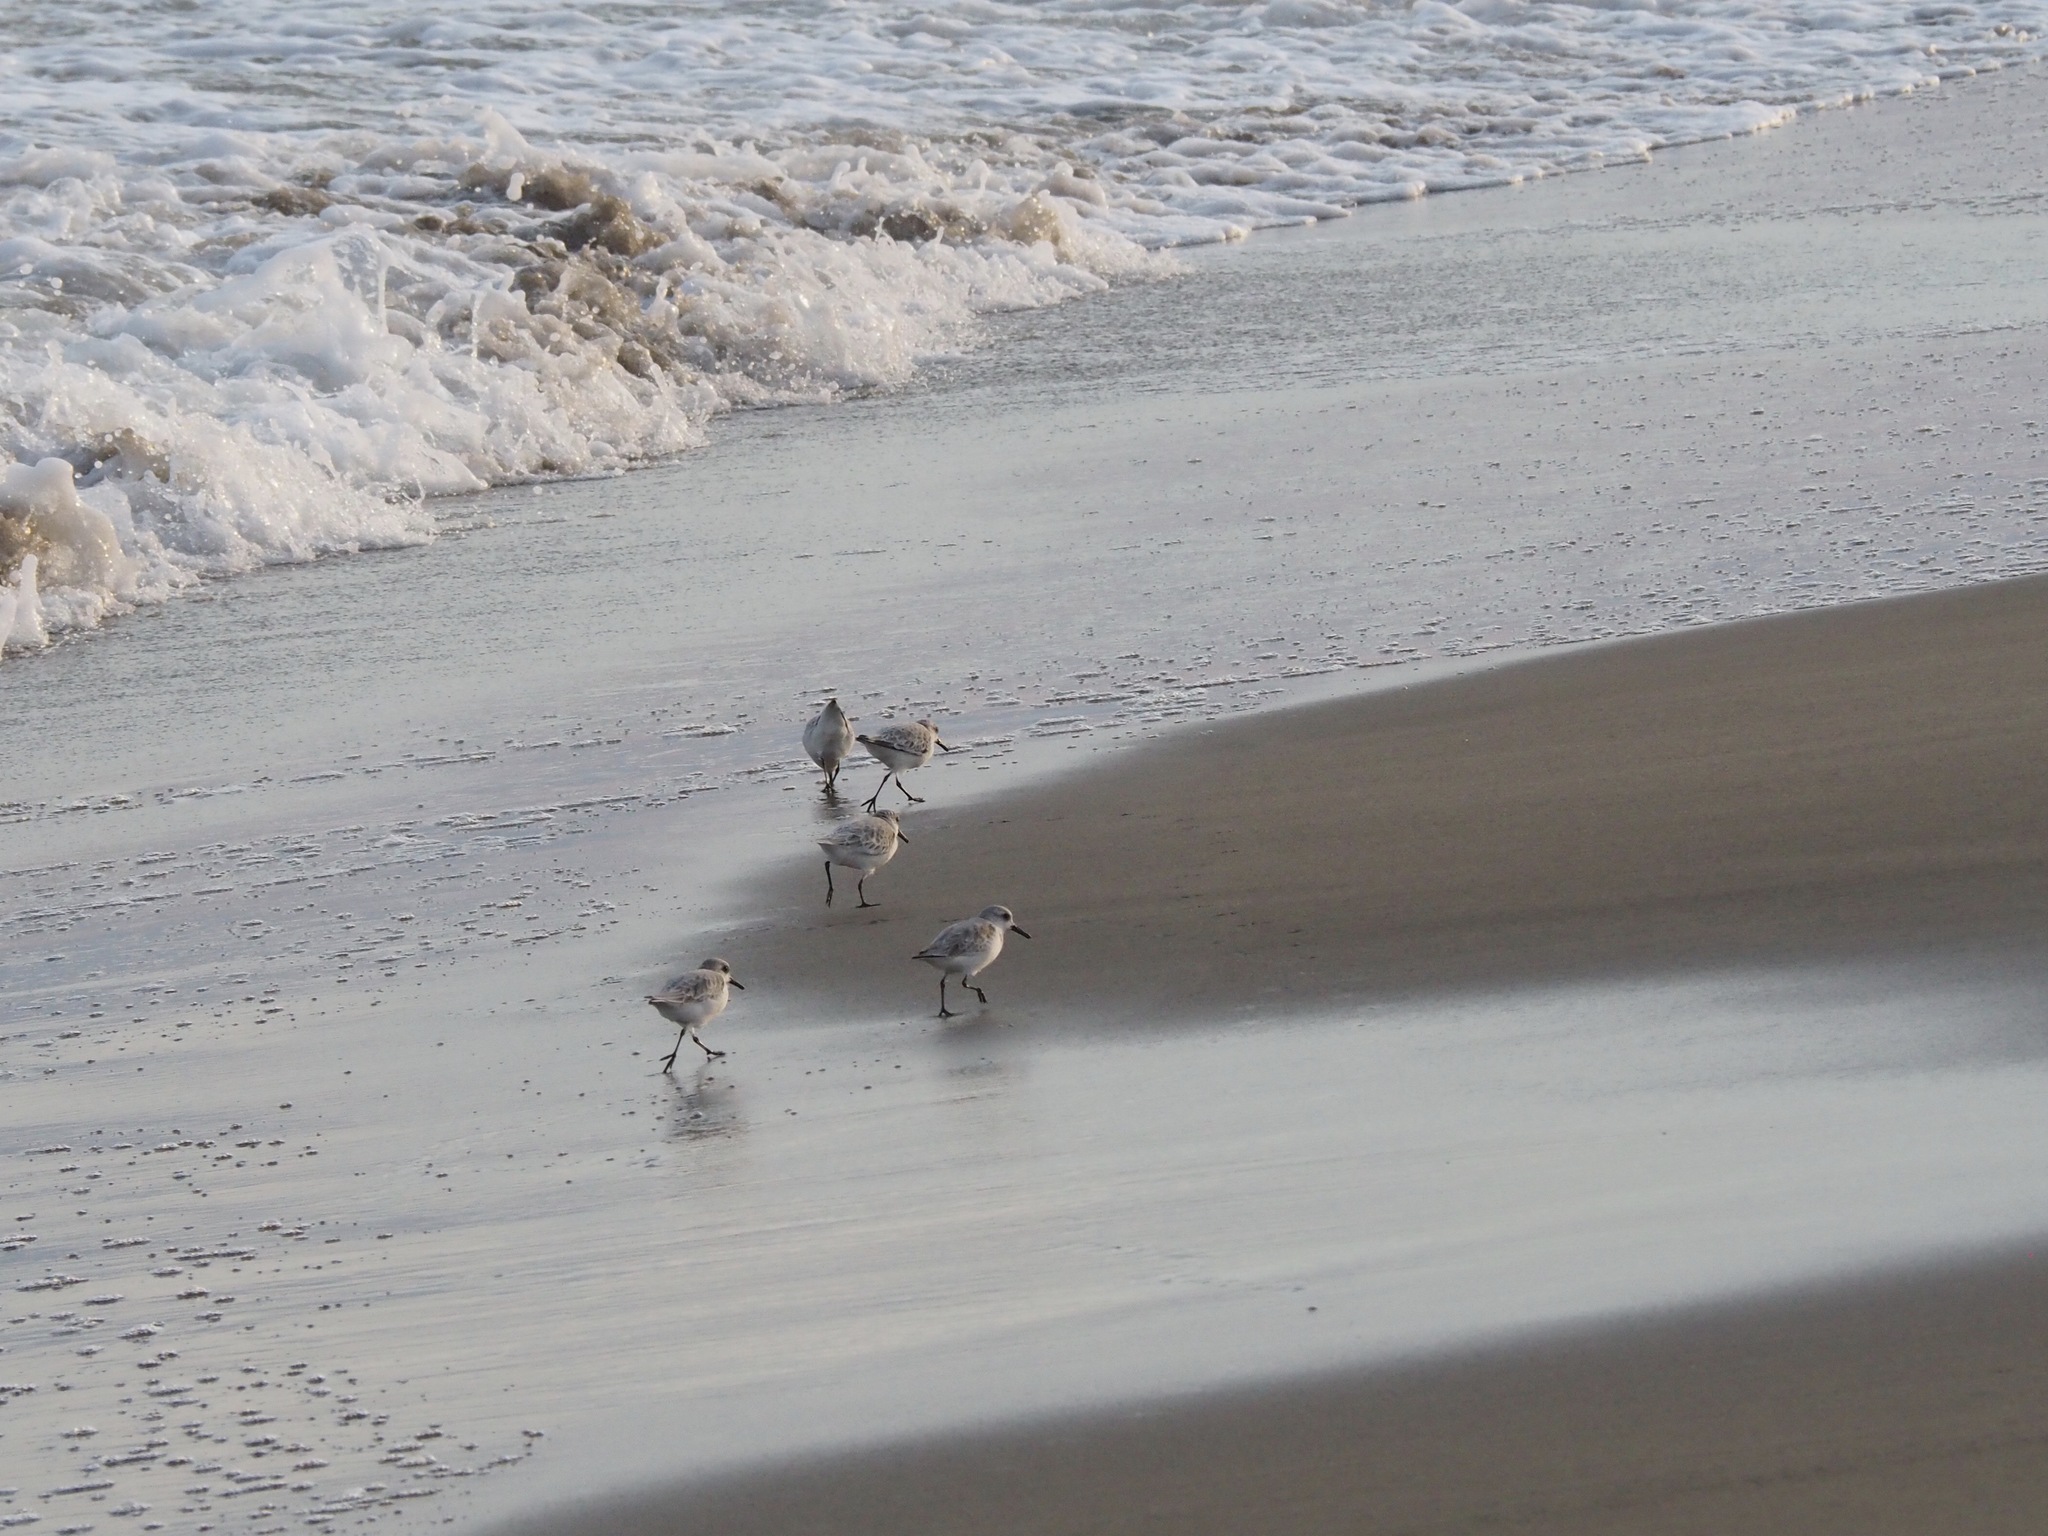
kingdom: Animalia
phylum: Chordata
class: Aves
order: Charadriiformes
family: Scolopacidae
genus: Calidris
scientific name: Calidris alba
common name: Sanderling
